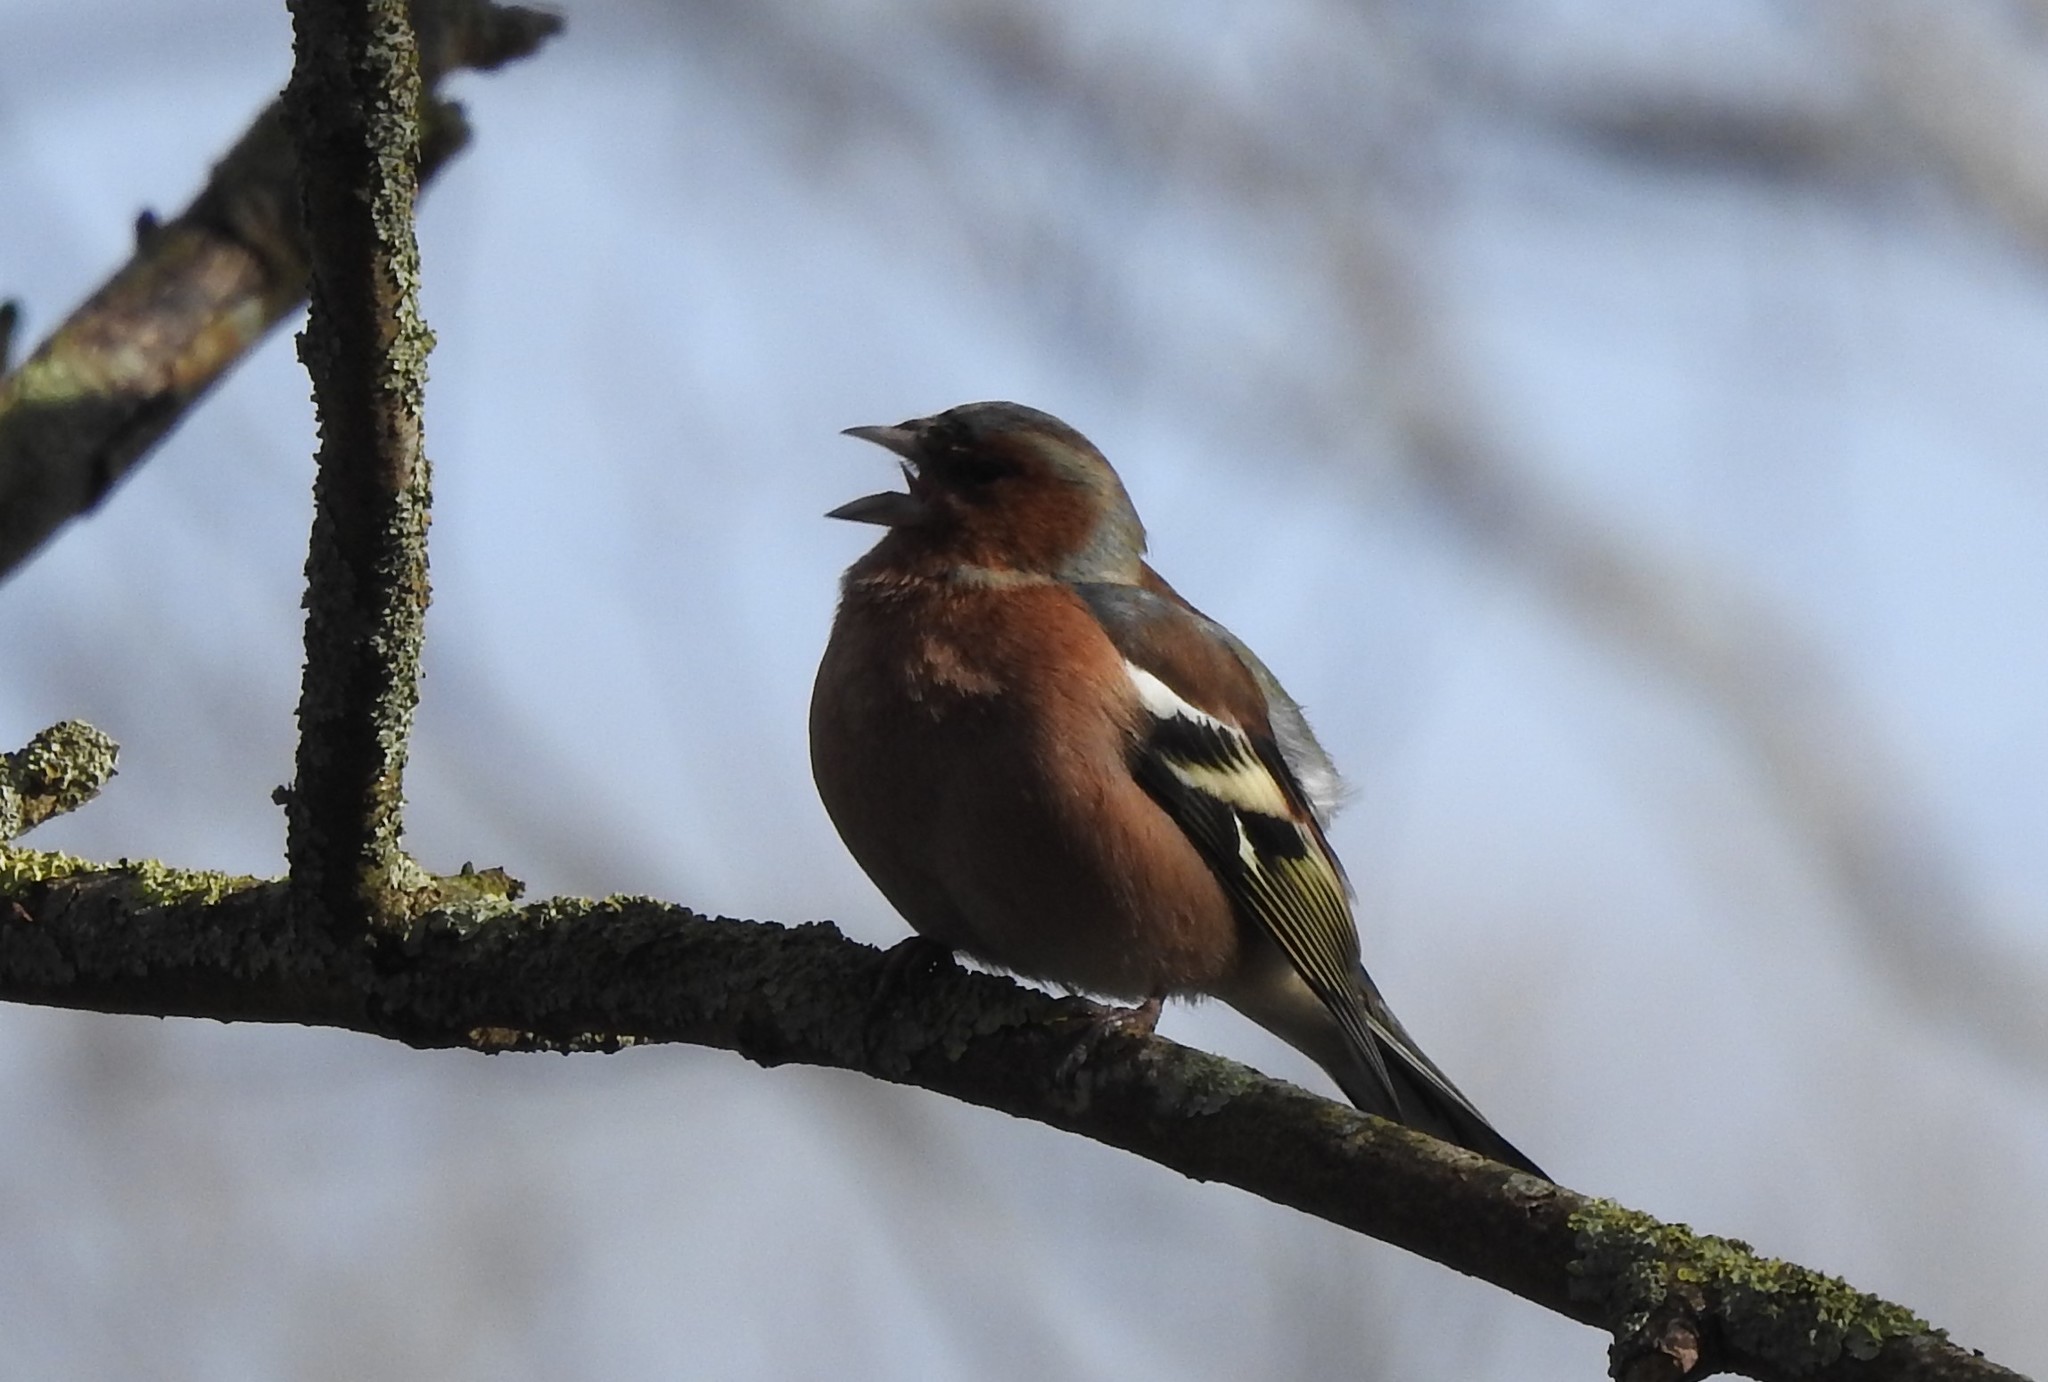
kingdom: Animalia
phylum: Chordata
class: Aves
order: Passeriformes
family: Fringillidae
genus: Fringilla
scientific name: Fringilla coelebs
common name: Common chaffinch
